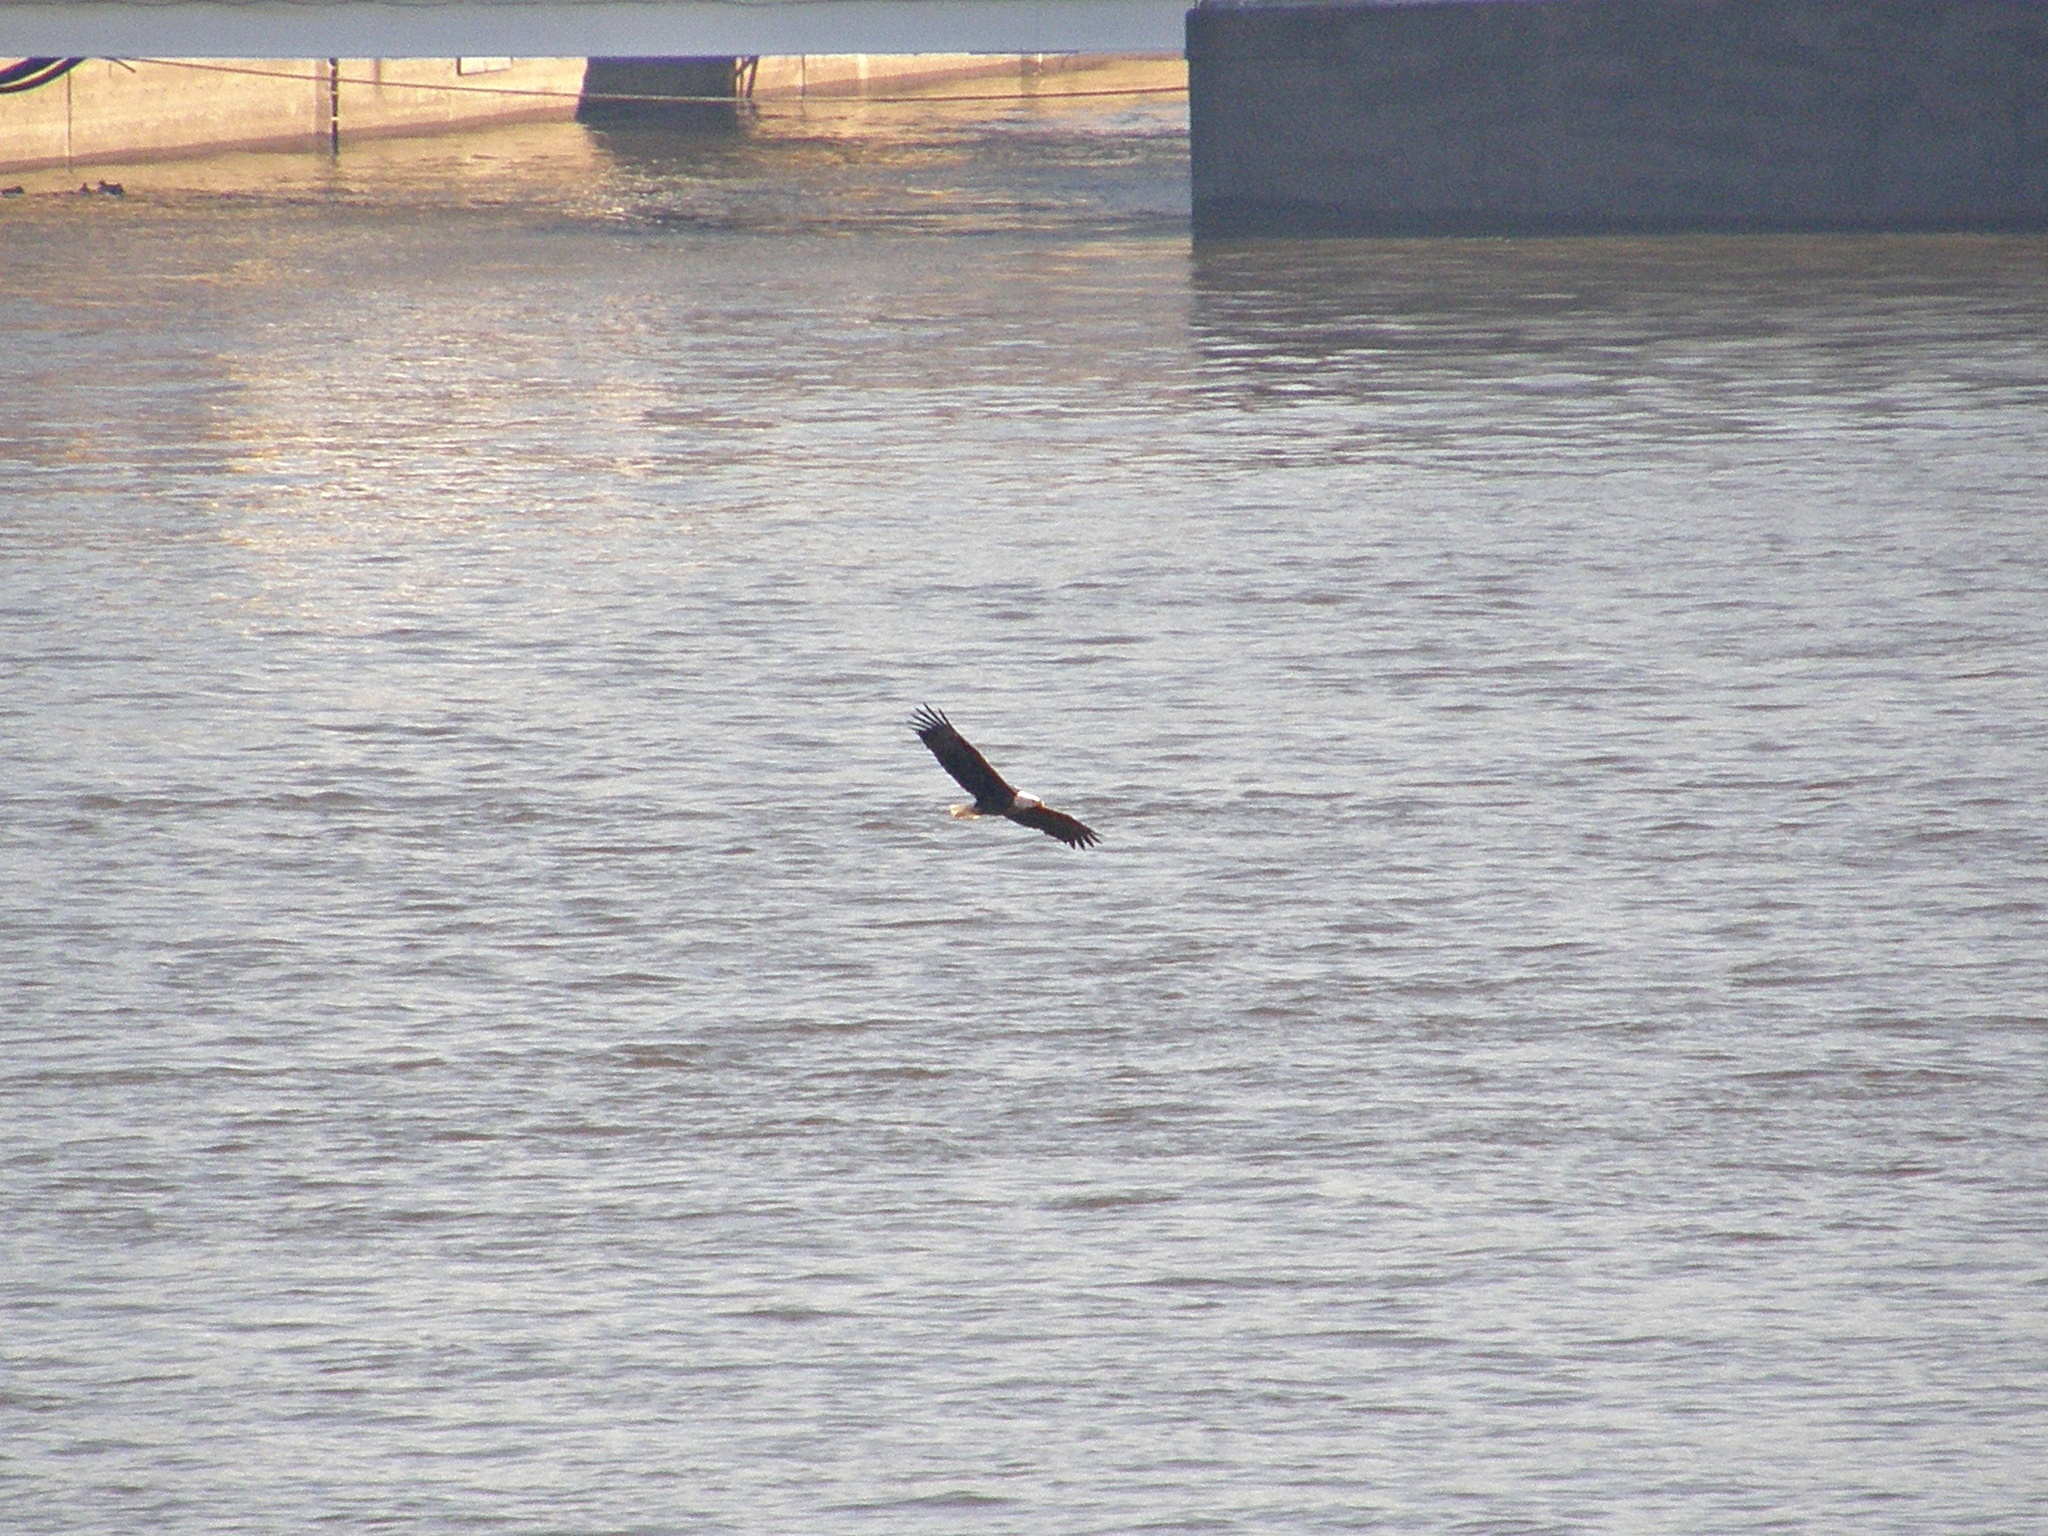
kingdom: Animalia
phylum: Chordata
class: Aves
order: Accipitriformes
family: Accipitridae
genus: Haliaeetus
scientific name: Haliaeetus leucocephalus
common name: Bald eagle
